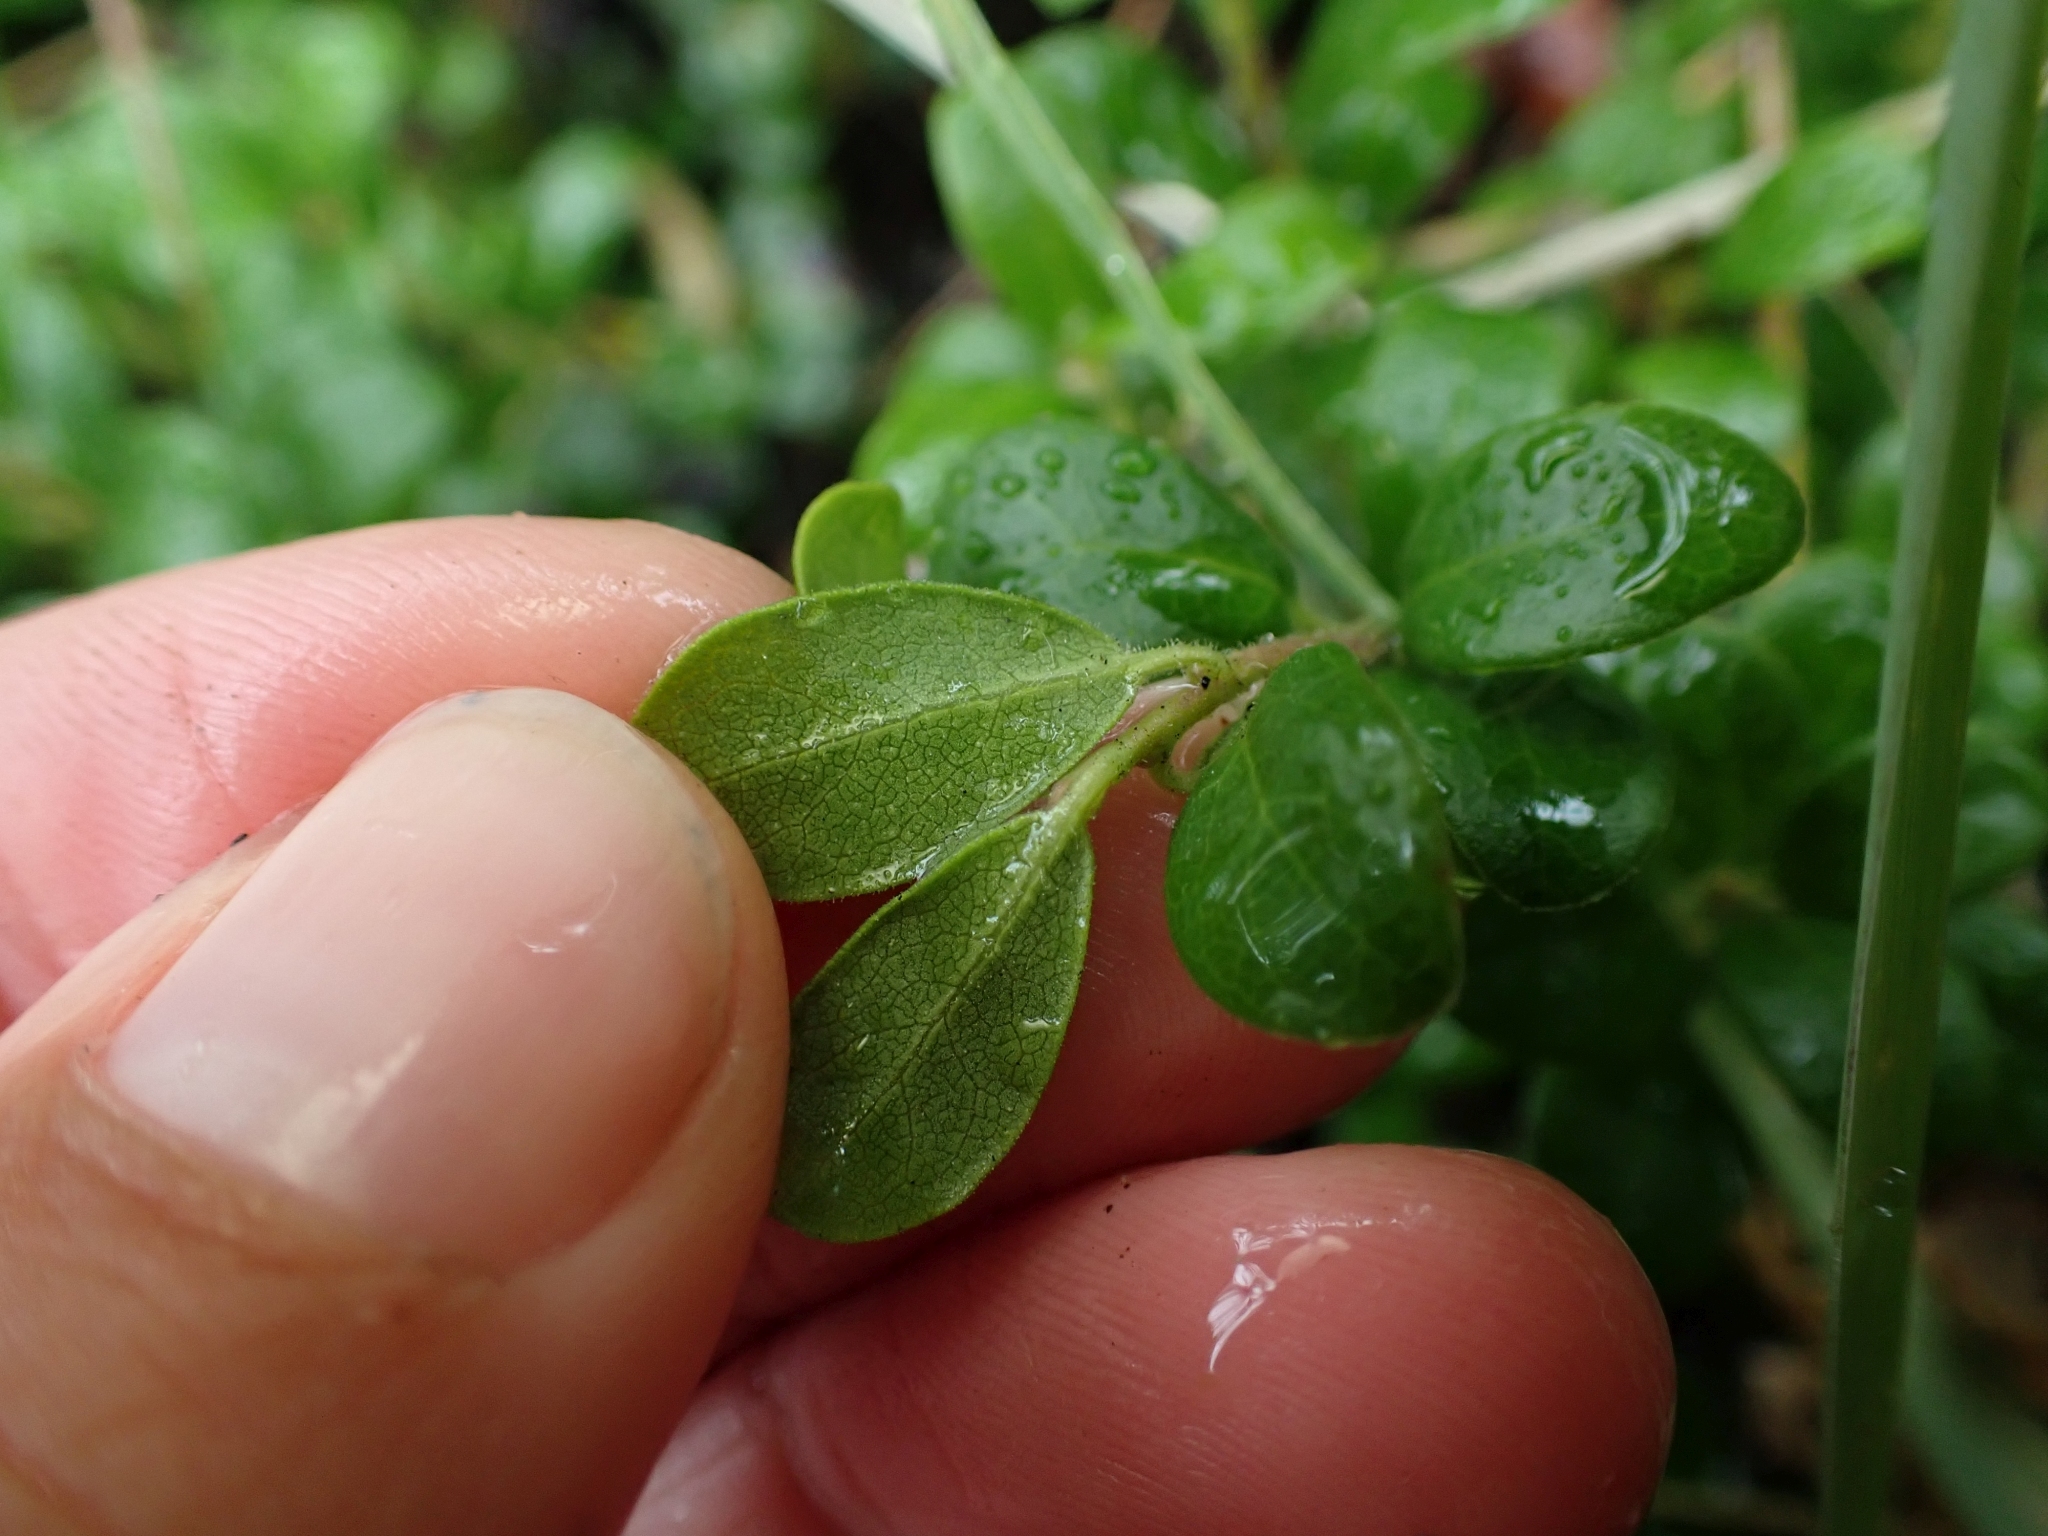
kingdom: Plantae
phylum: Tracheophyta
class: Magnoliopsida
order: Ericales
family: Ericaceae
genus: Arctostaphylos
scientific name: Arctostaphylos uva-ursi
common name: Bearberry
